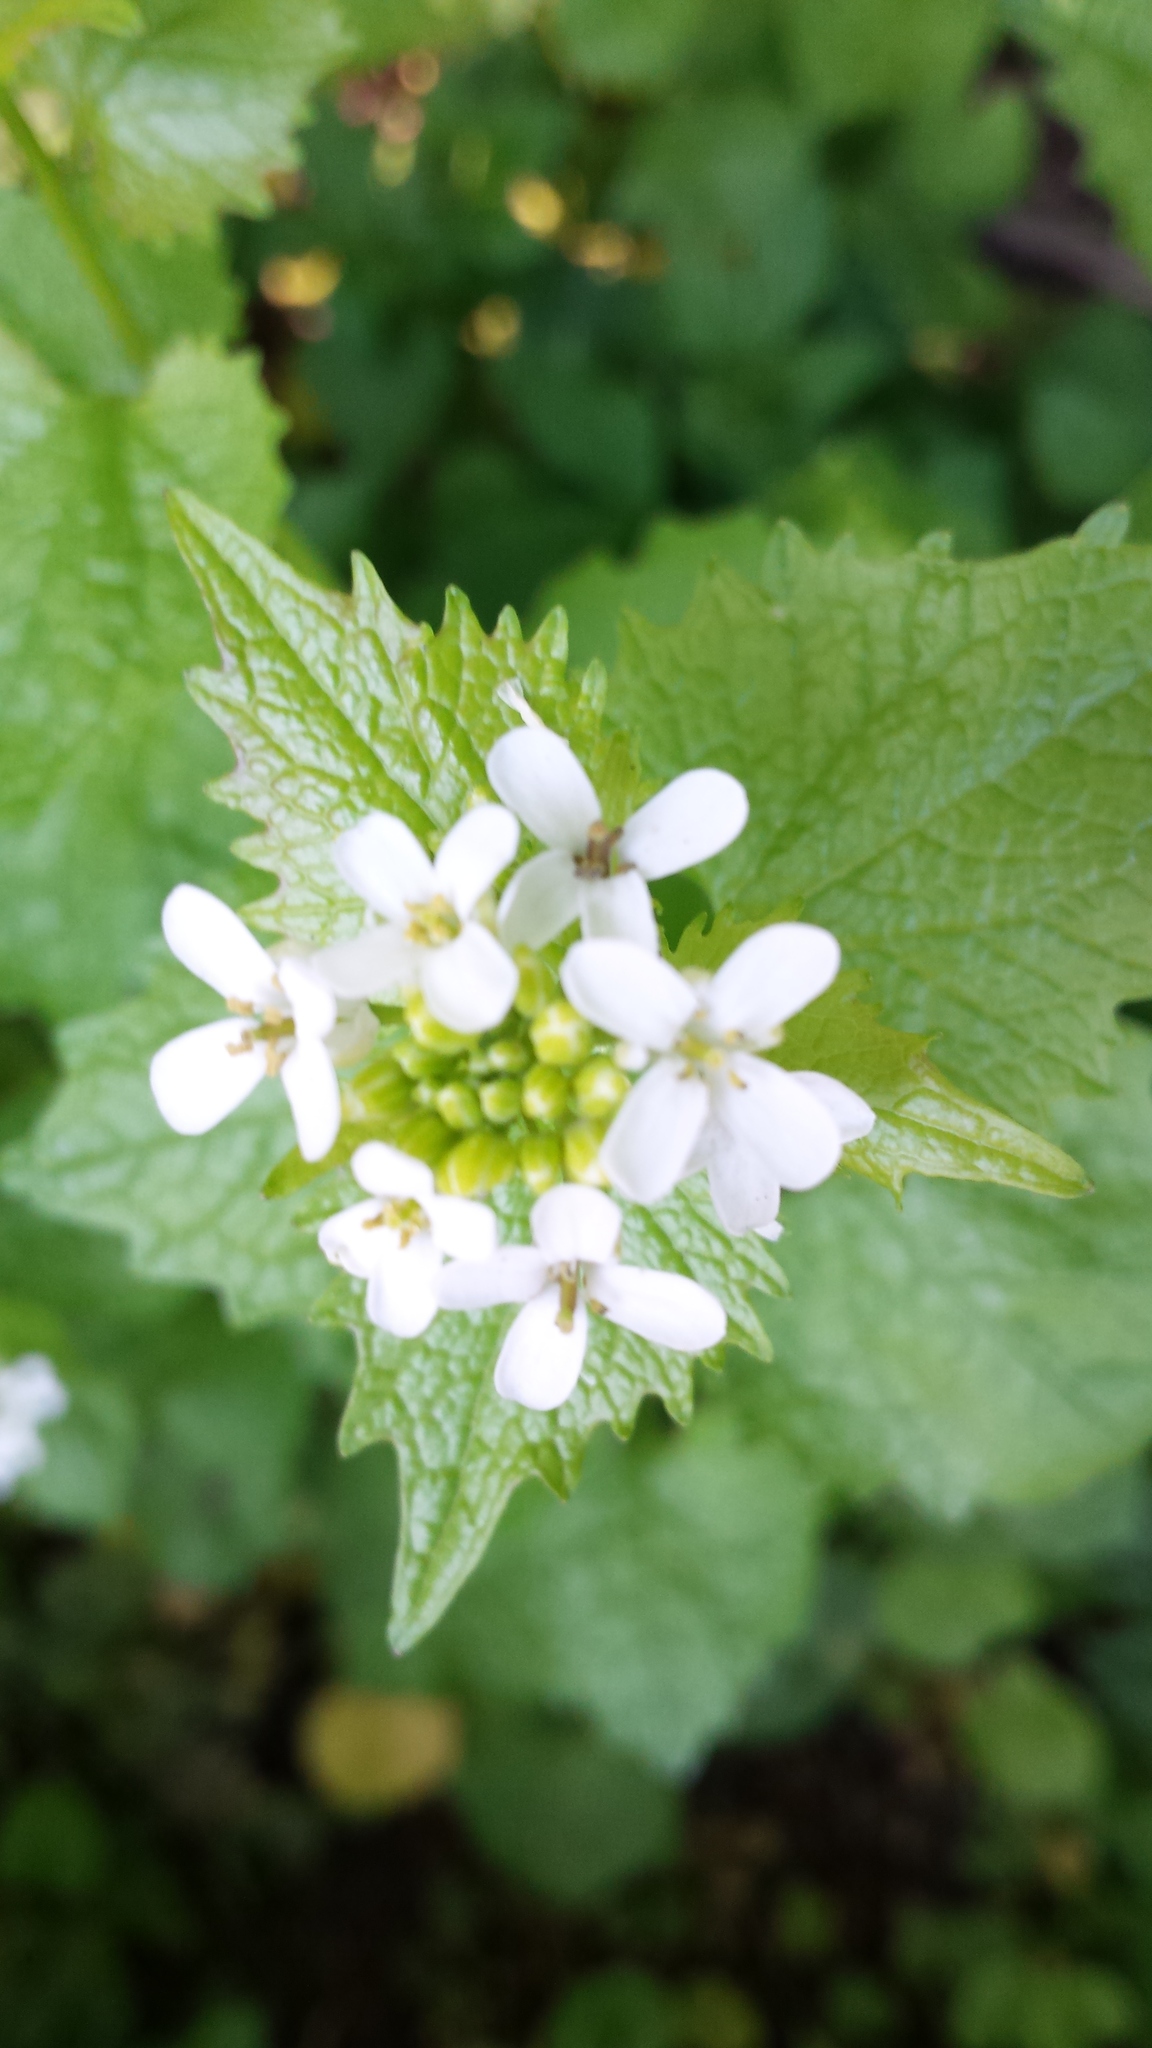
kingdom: Plantae
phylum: Tracheophyta
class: Magnoliopsida
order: Brassicales
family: Brassicaceae
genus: Alliaria
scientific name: Alliaria petiolata
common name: Garlic mustard
